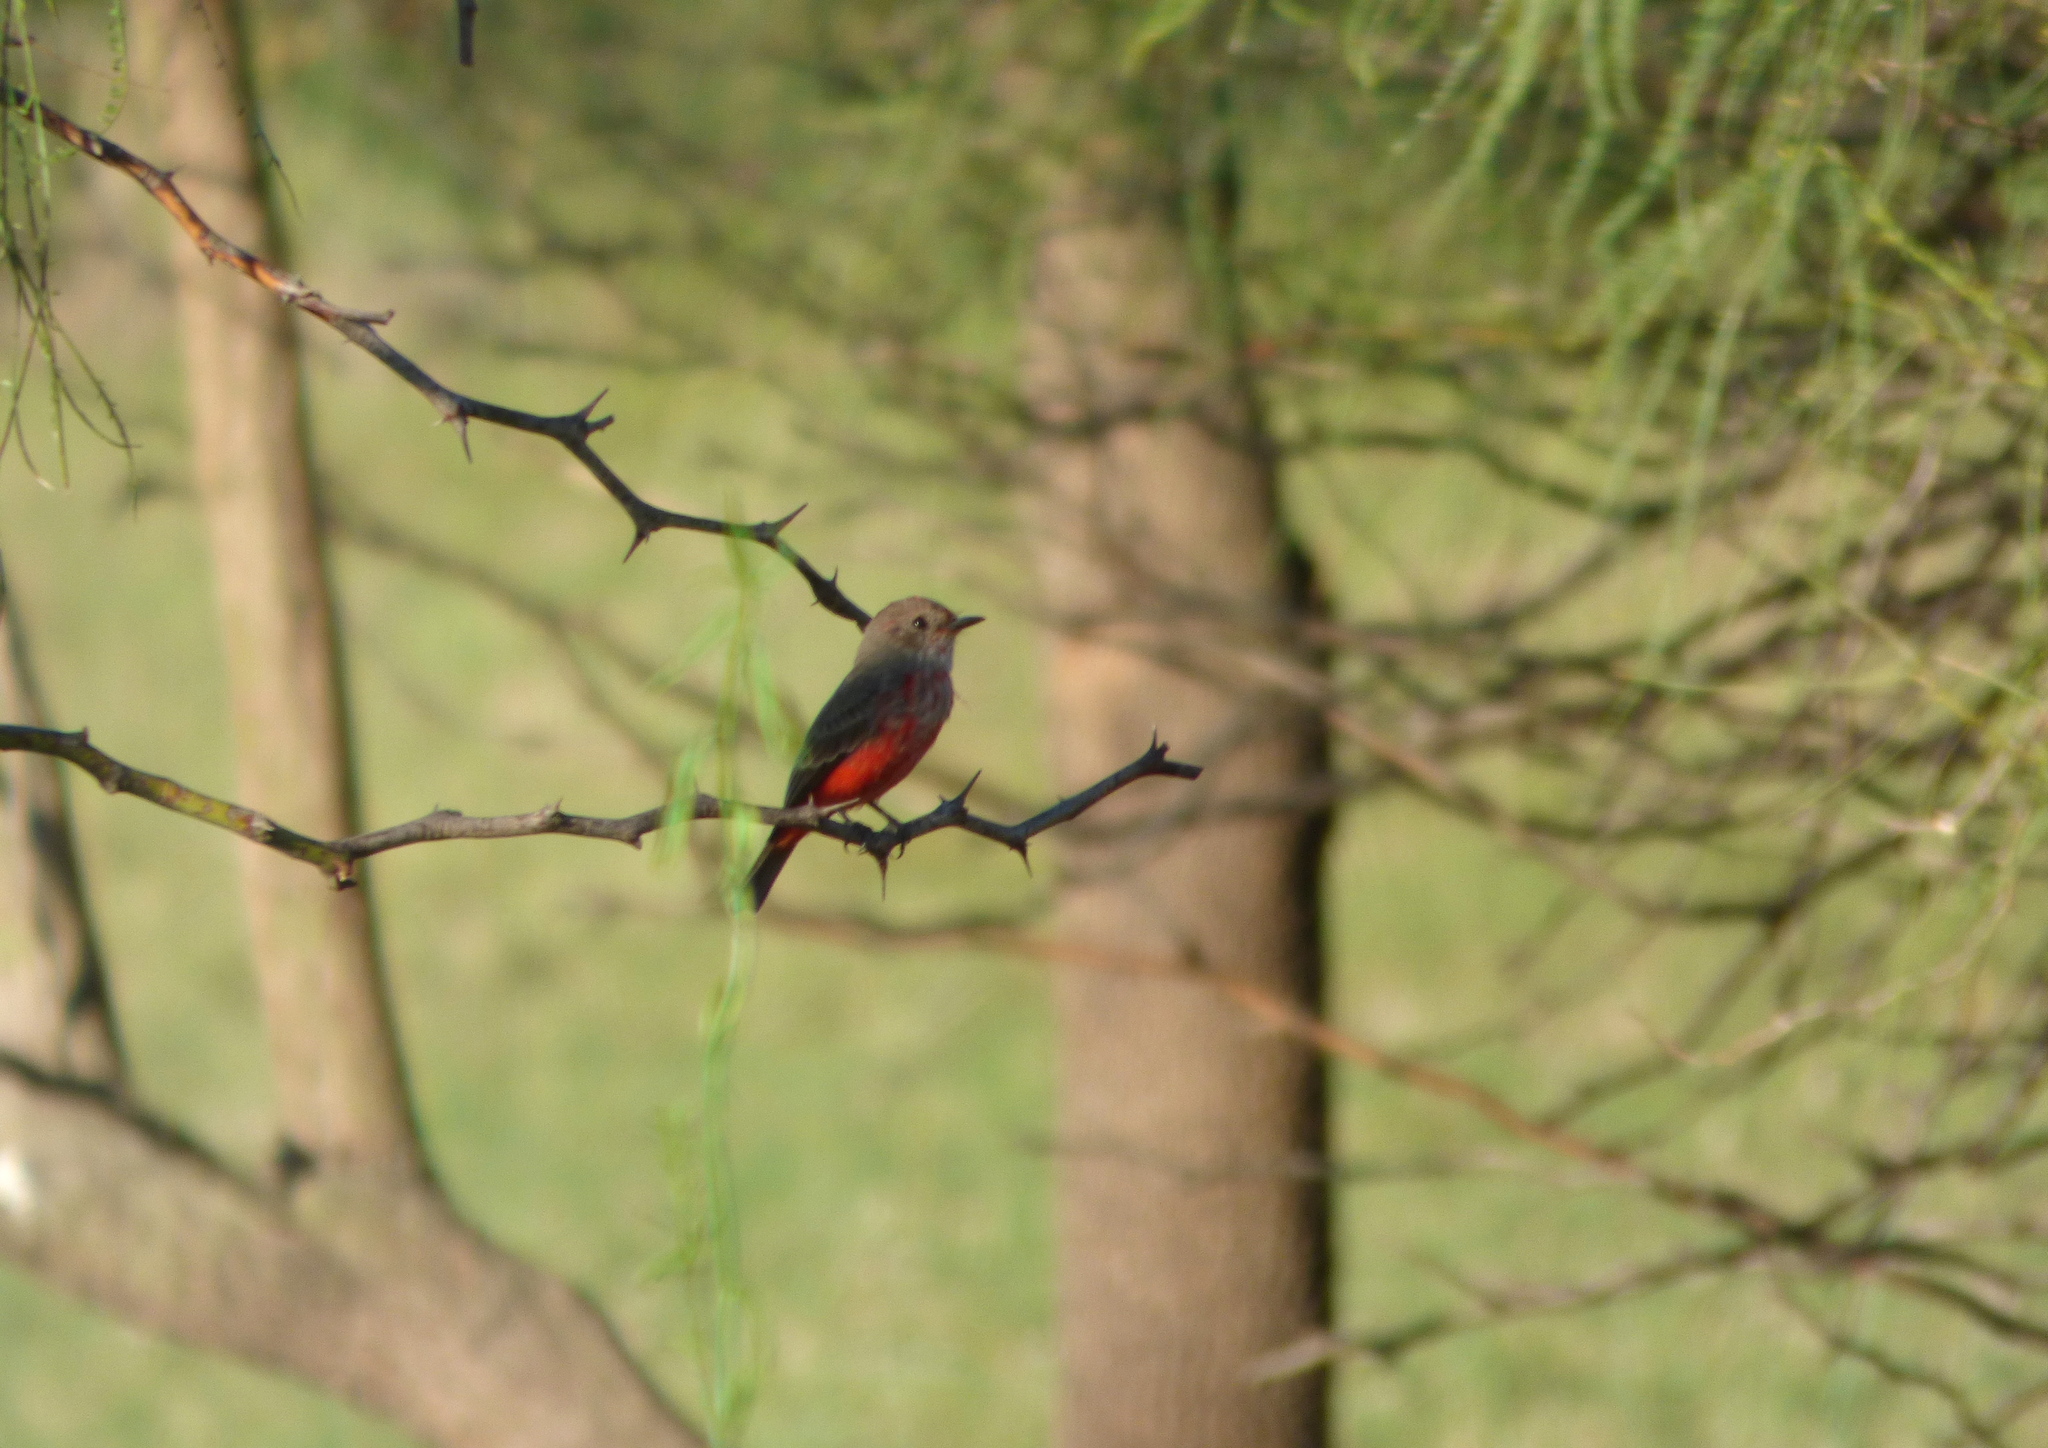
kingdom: Animalia
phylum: Chordata
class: Aves
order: Passeriformes
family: Tyrannidae
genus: Pyrocephalus
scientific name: Pyrocephalus rubinus
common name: Vermilion flycatcher
